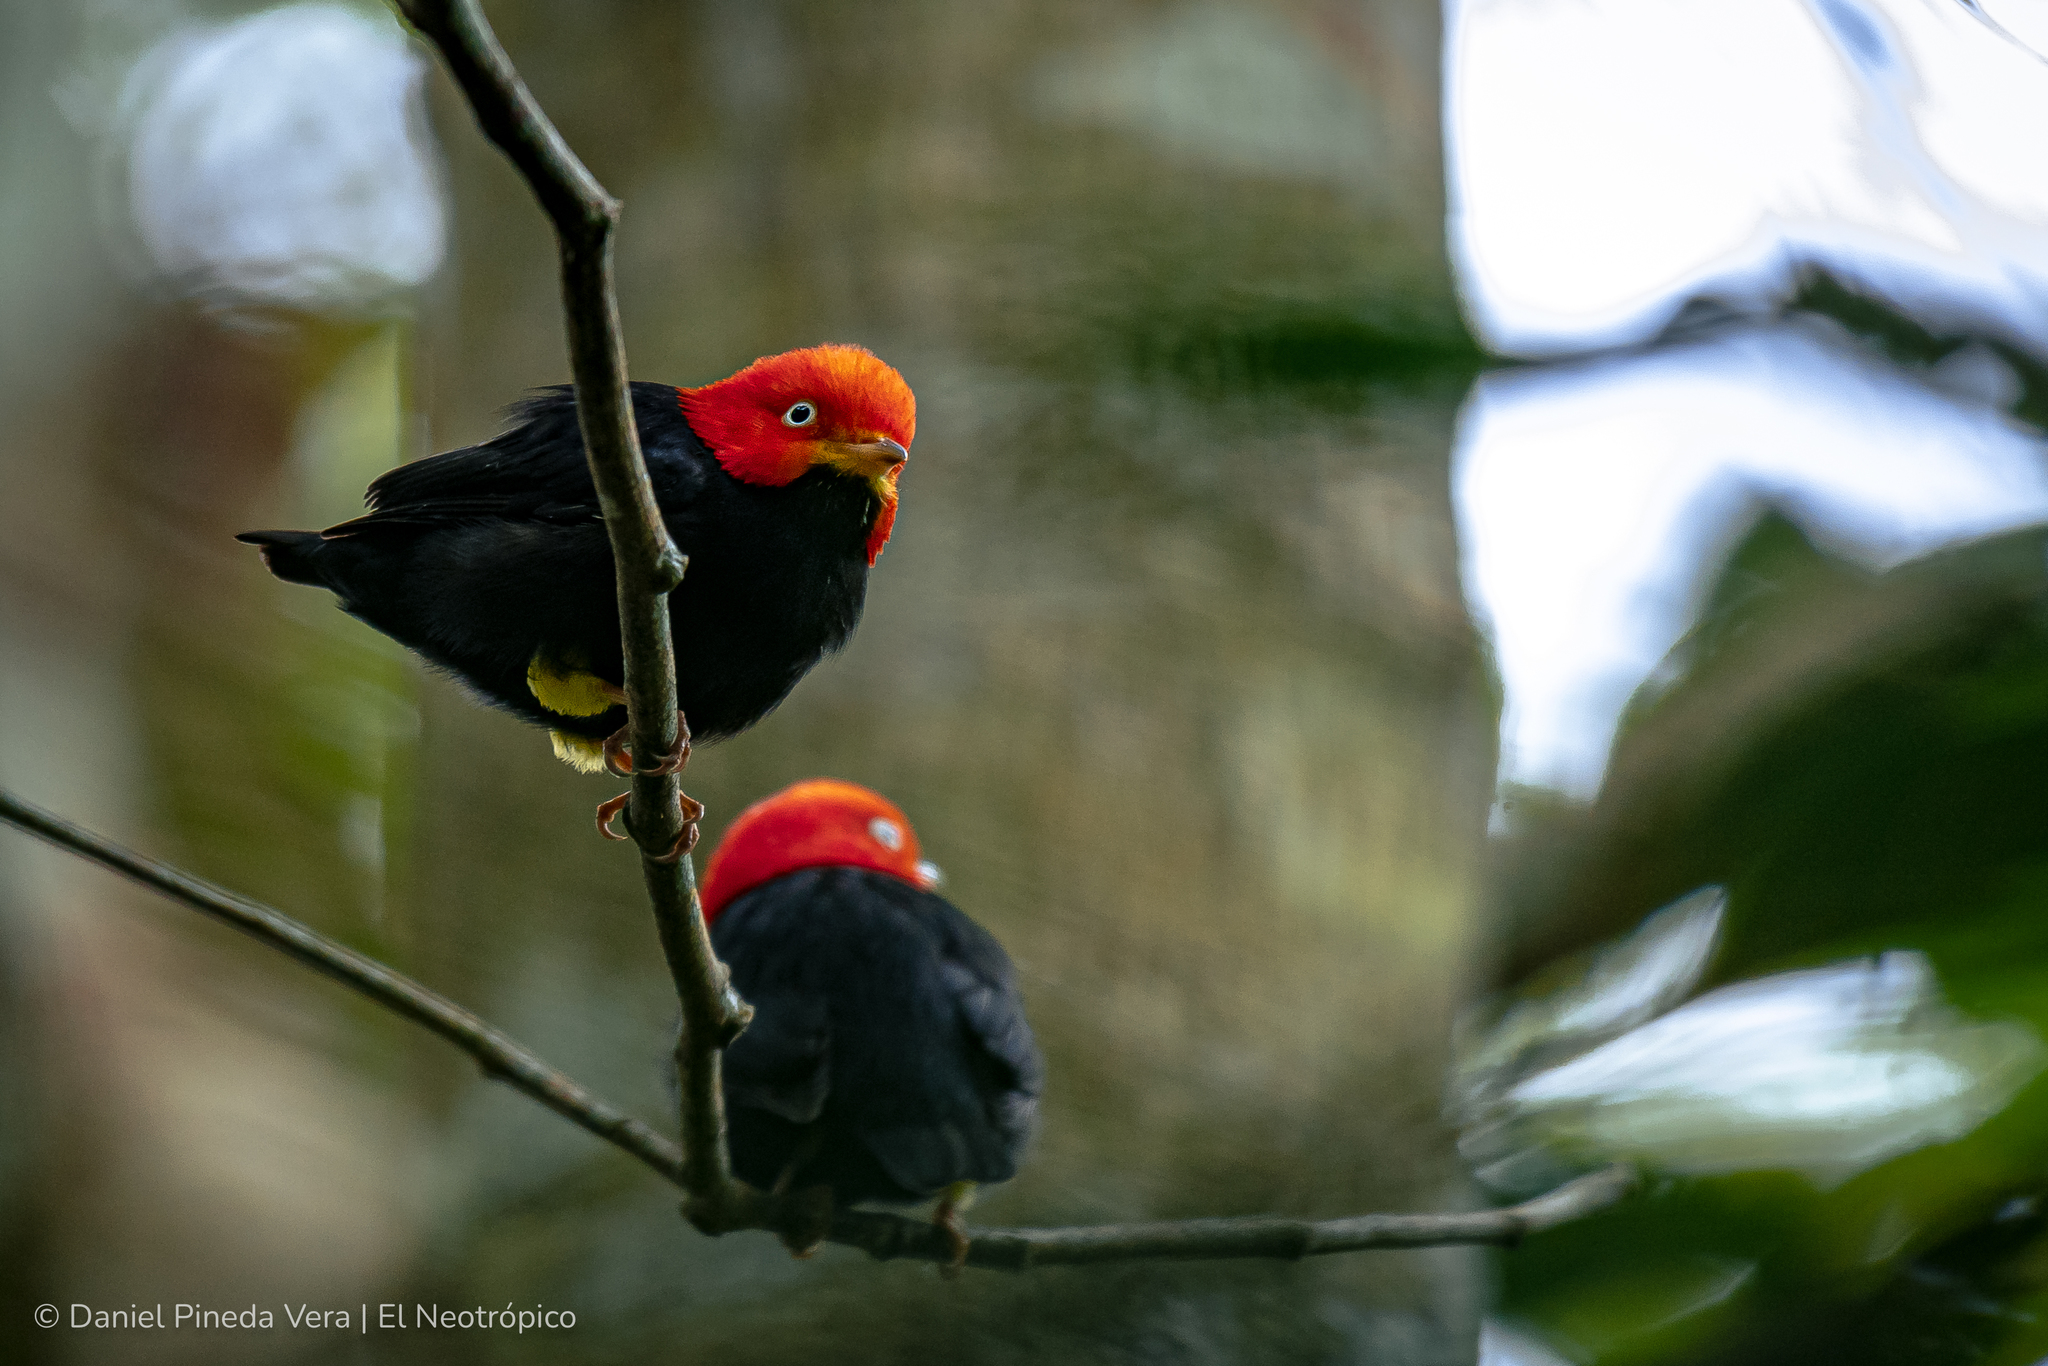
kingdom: Animalia
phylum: Chordata
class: Aves
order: Passeriformes
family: Pipridae
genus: Pipra
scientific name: Pipra mentalis
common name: Red-capped manakin
